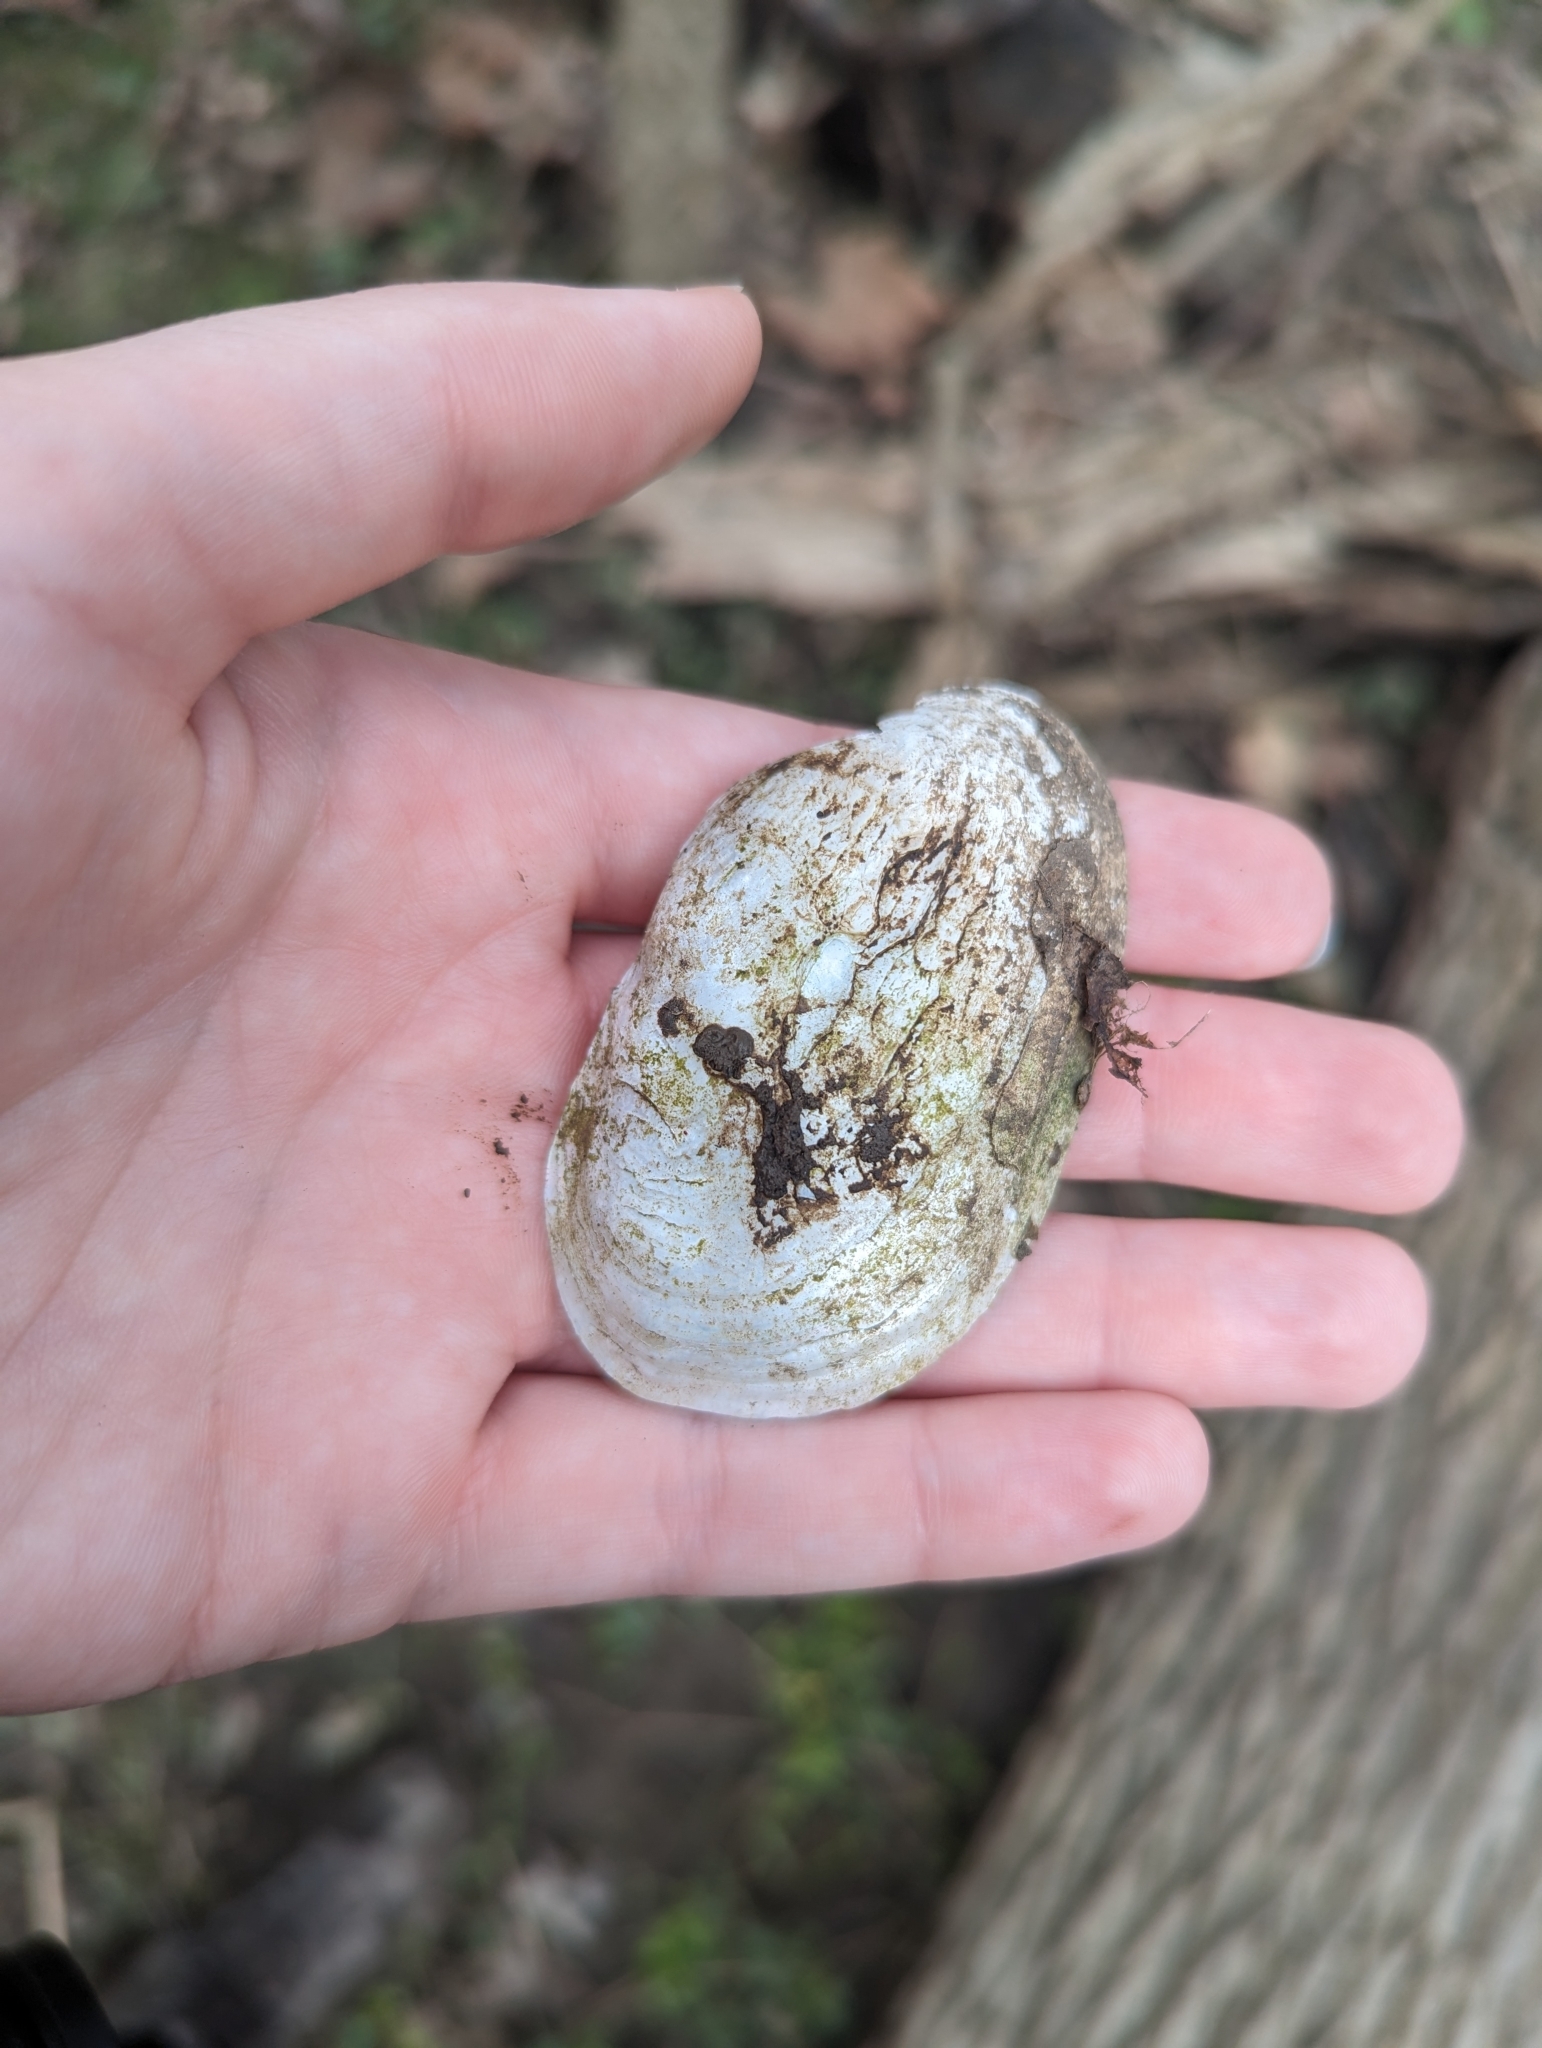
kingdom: Animalia
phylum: Mollusca
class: Bivalvia
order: Unionida
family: Unionidae
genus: Lampsilis
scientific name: Lampsilis siliquoidea
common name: Fatmucket
